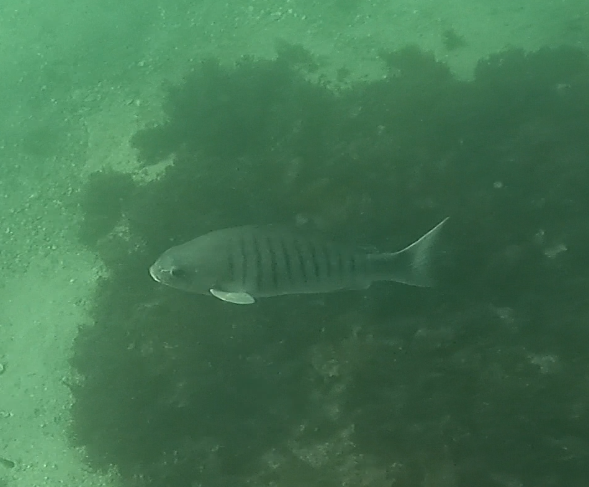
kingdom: Animalia
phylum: Chordata
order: Perciformes
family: Kyphosidae
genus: Girella
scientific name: Girella tricuspidata
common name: Parore
